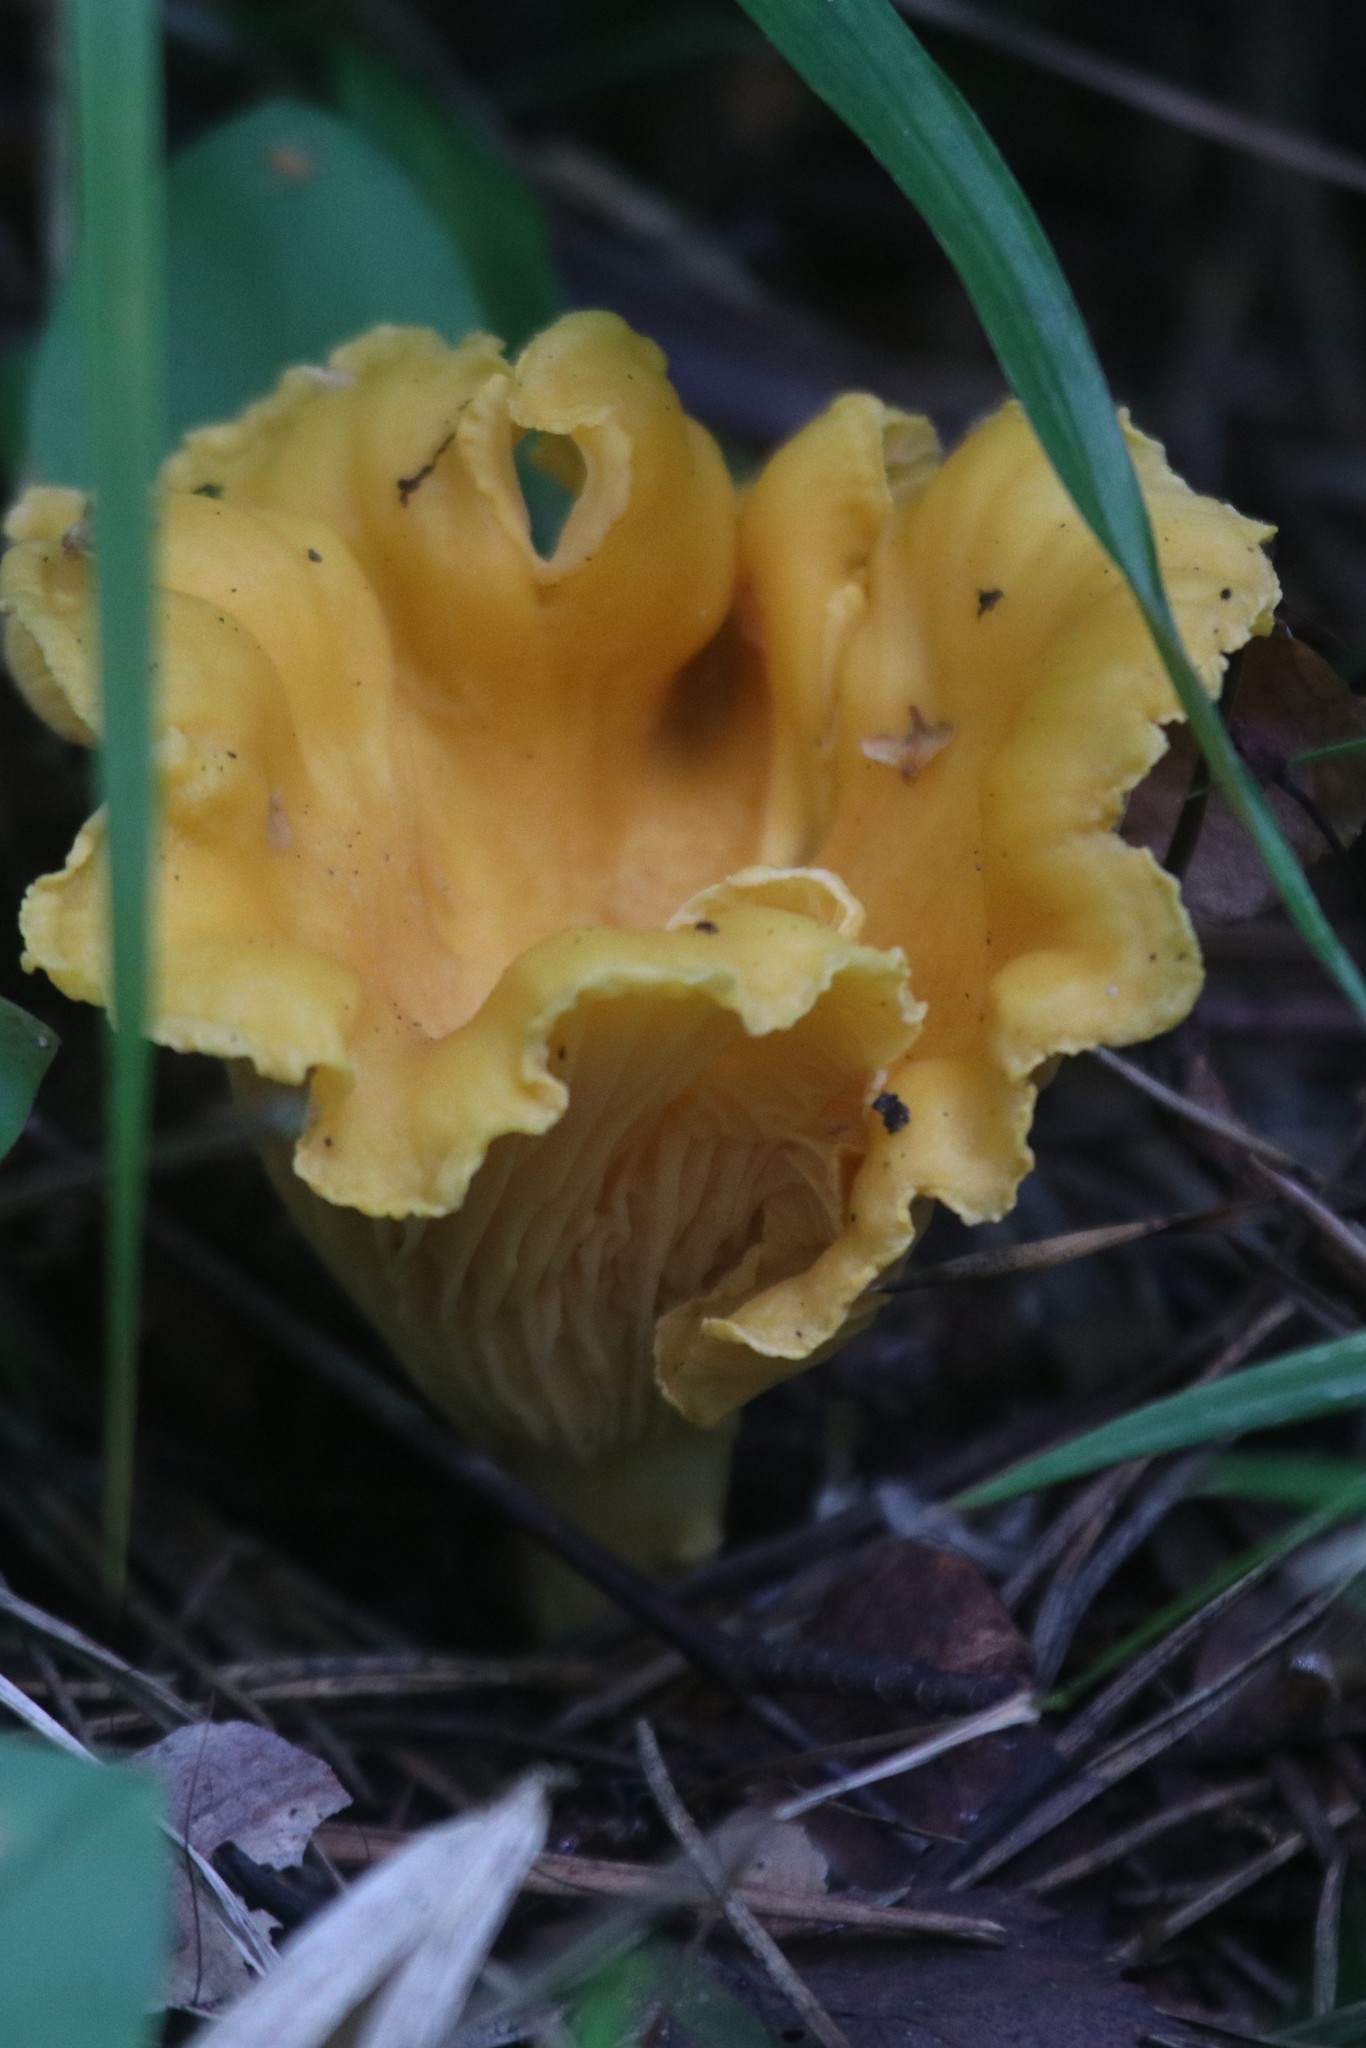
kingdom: Fungi
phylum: Basidiomycota
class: Agaricomycetes
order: Cantharellales
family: Hydnaceae
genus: Cantharellus
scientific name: Cantharellus cibarius
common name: Chanterelle
